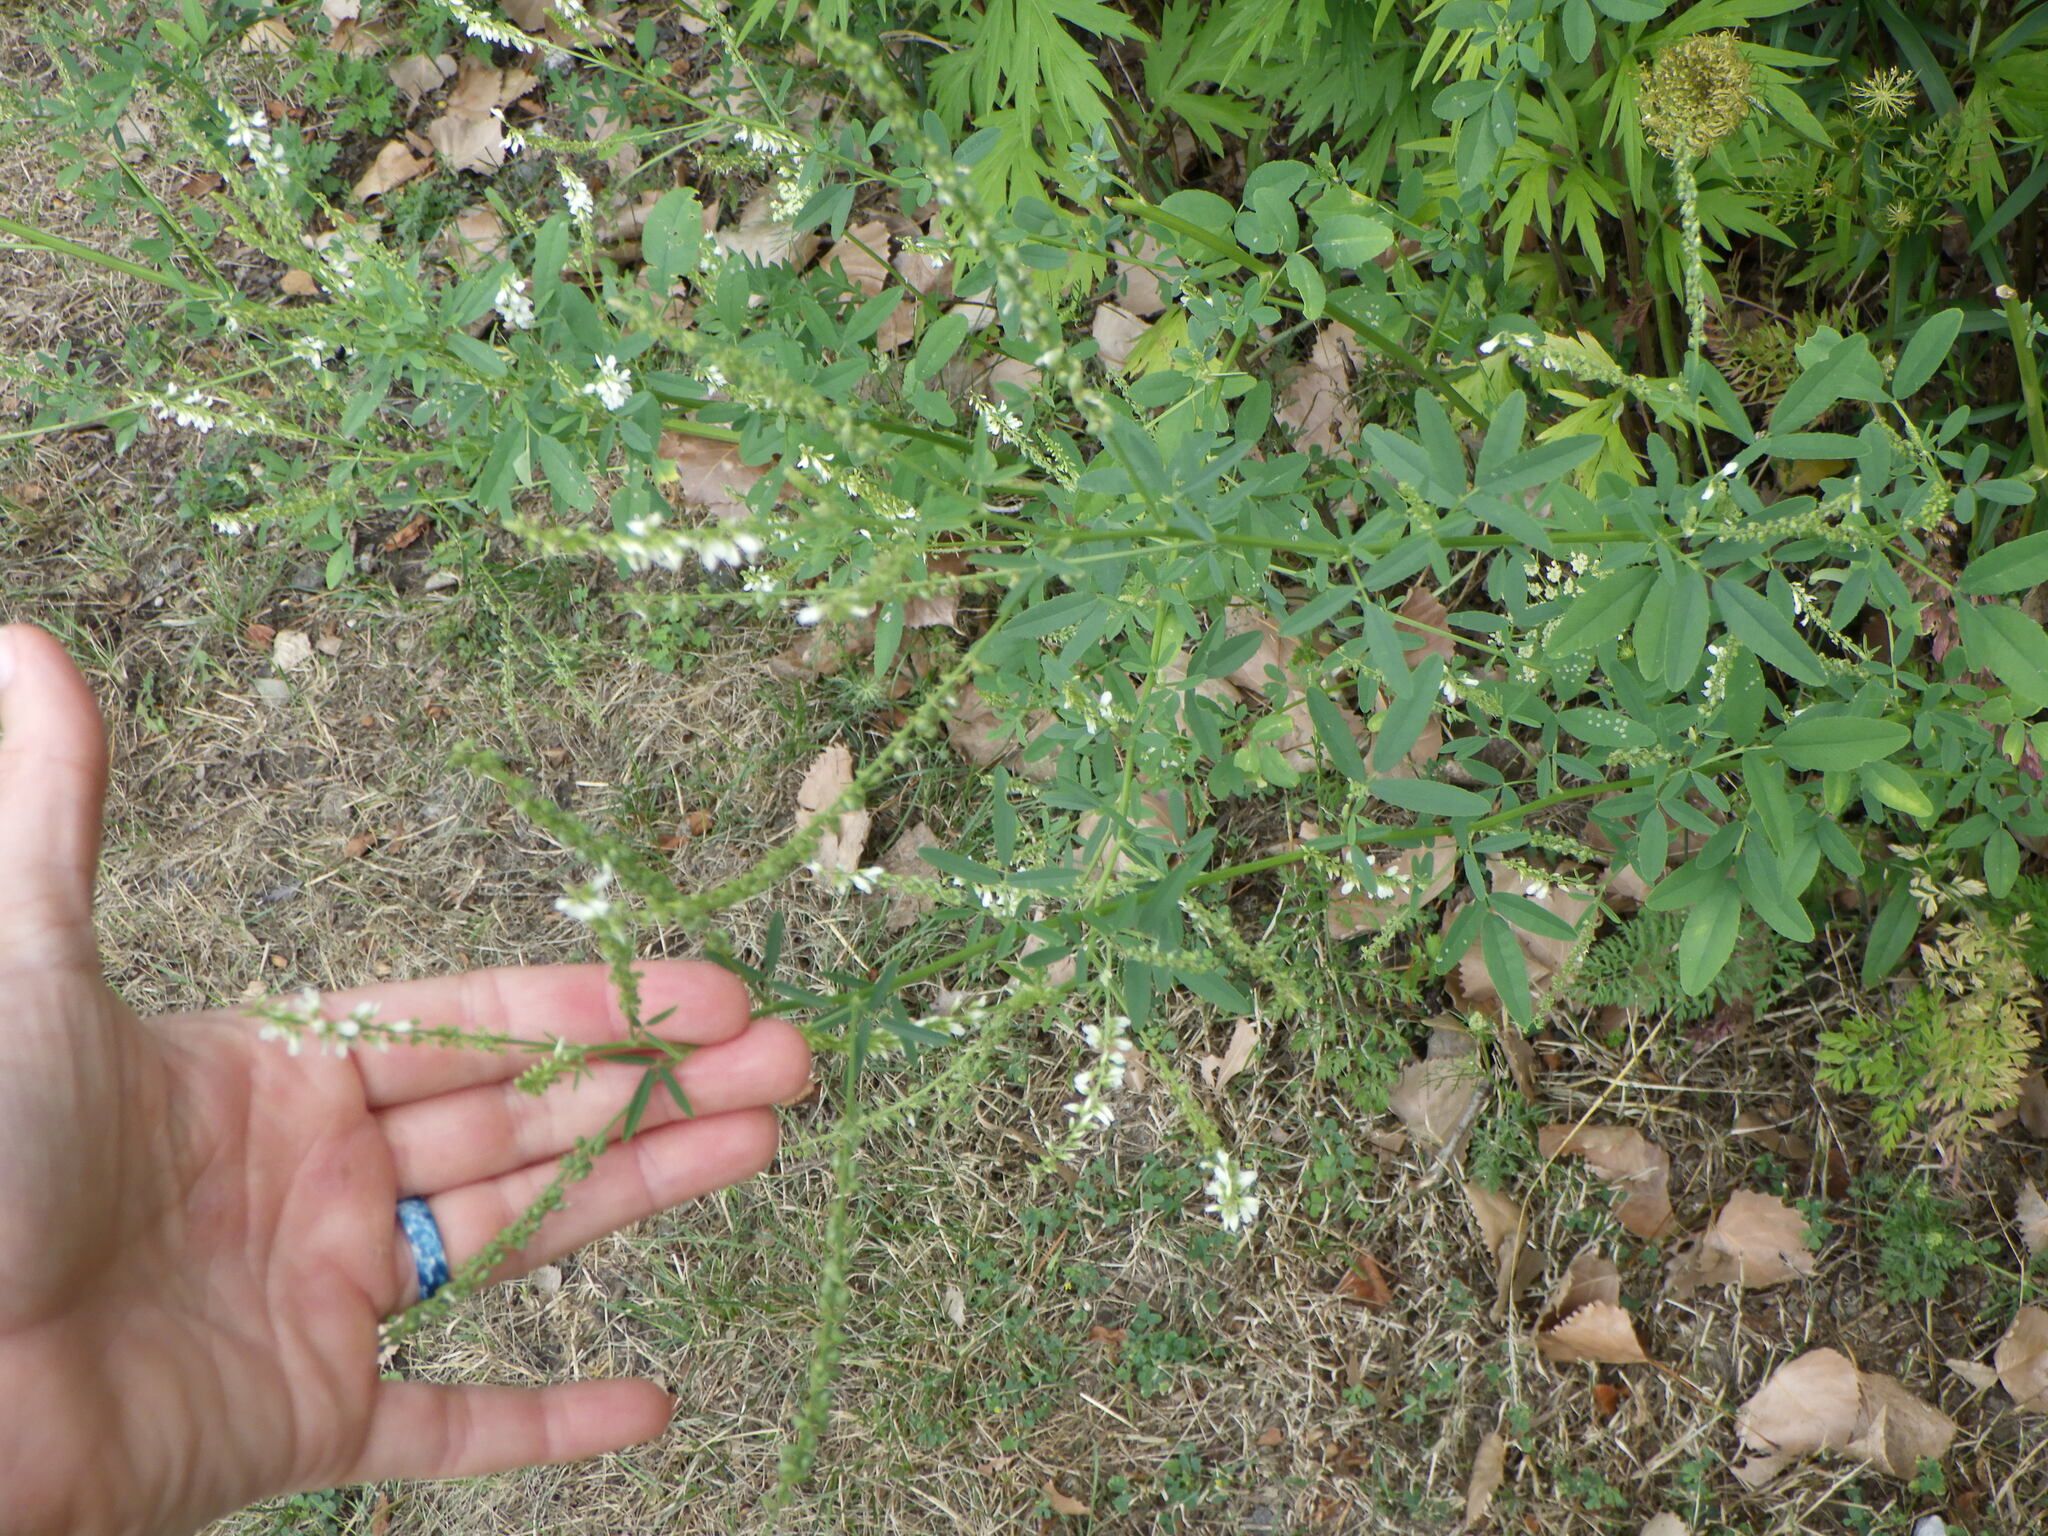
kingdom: Plantae
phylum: Tracheophyta
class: Magnoliopsida
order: Fabales
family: Fabaceae
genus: Melilotus
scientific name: Melilotus albus
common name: White melilot
